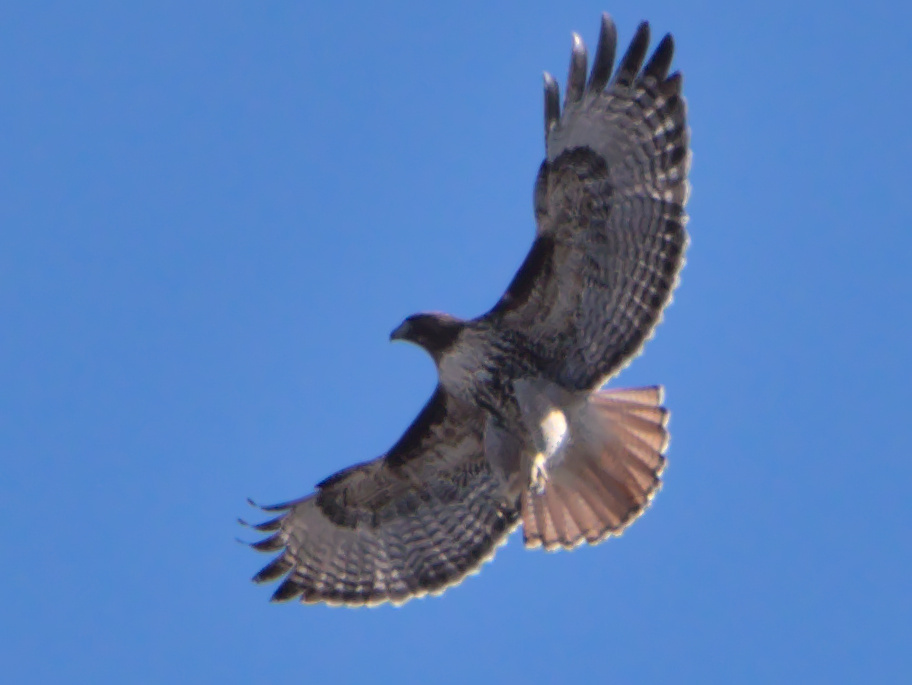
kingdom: Animalia
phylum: Chordata
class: Aves
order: Accipitriformes
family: Accipitridae
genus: Buteo
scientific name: Buteo jamaicensis
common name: Red-tailed hawk
